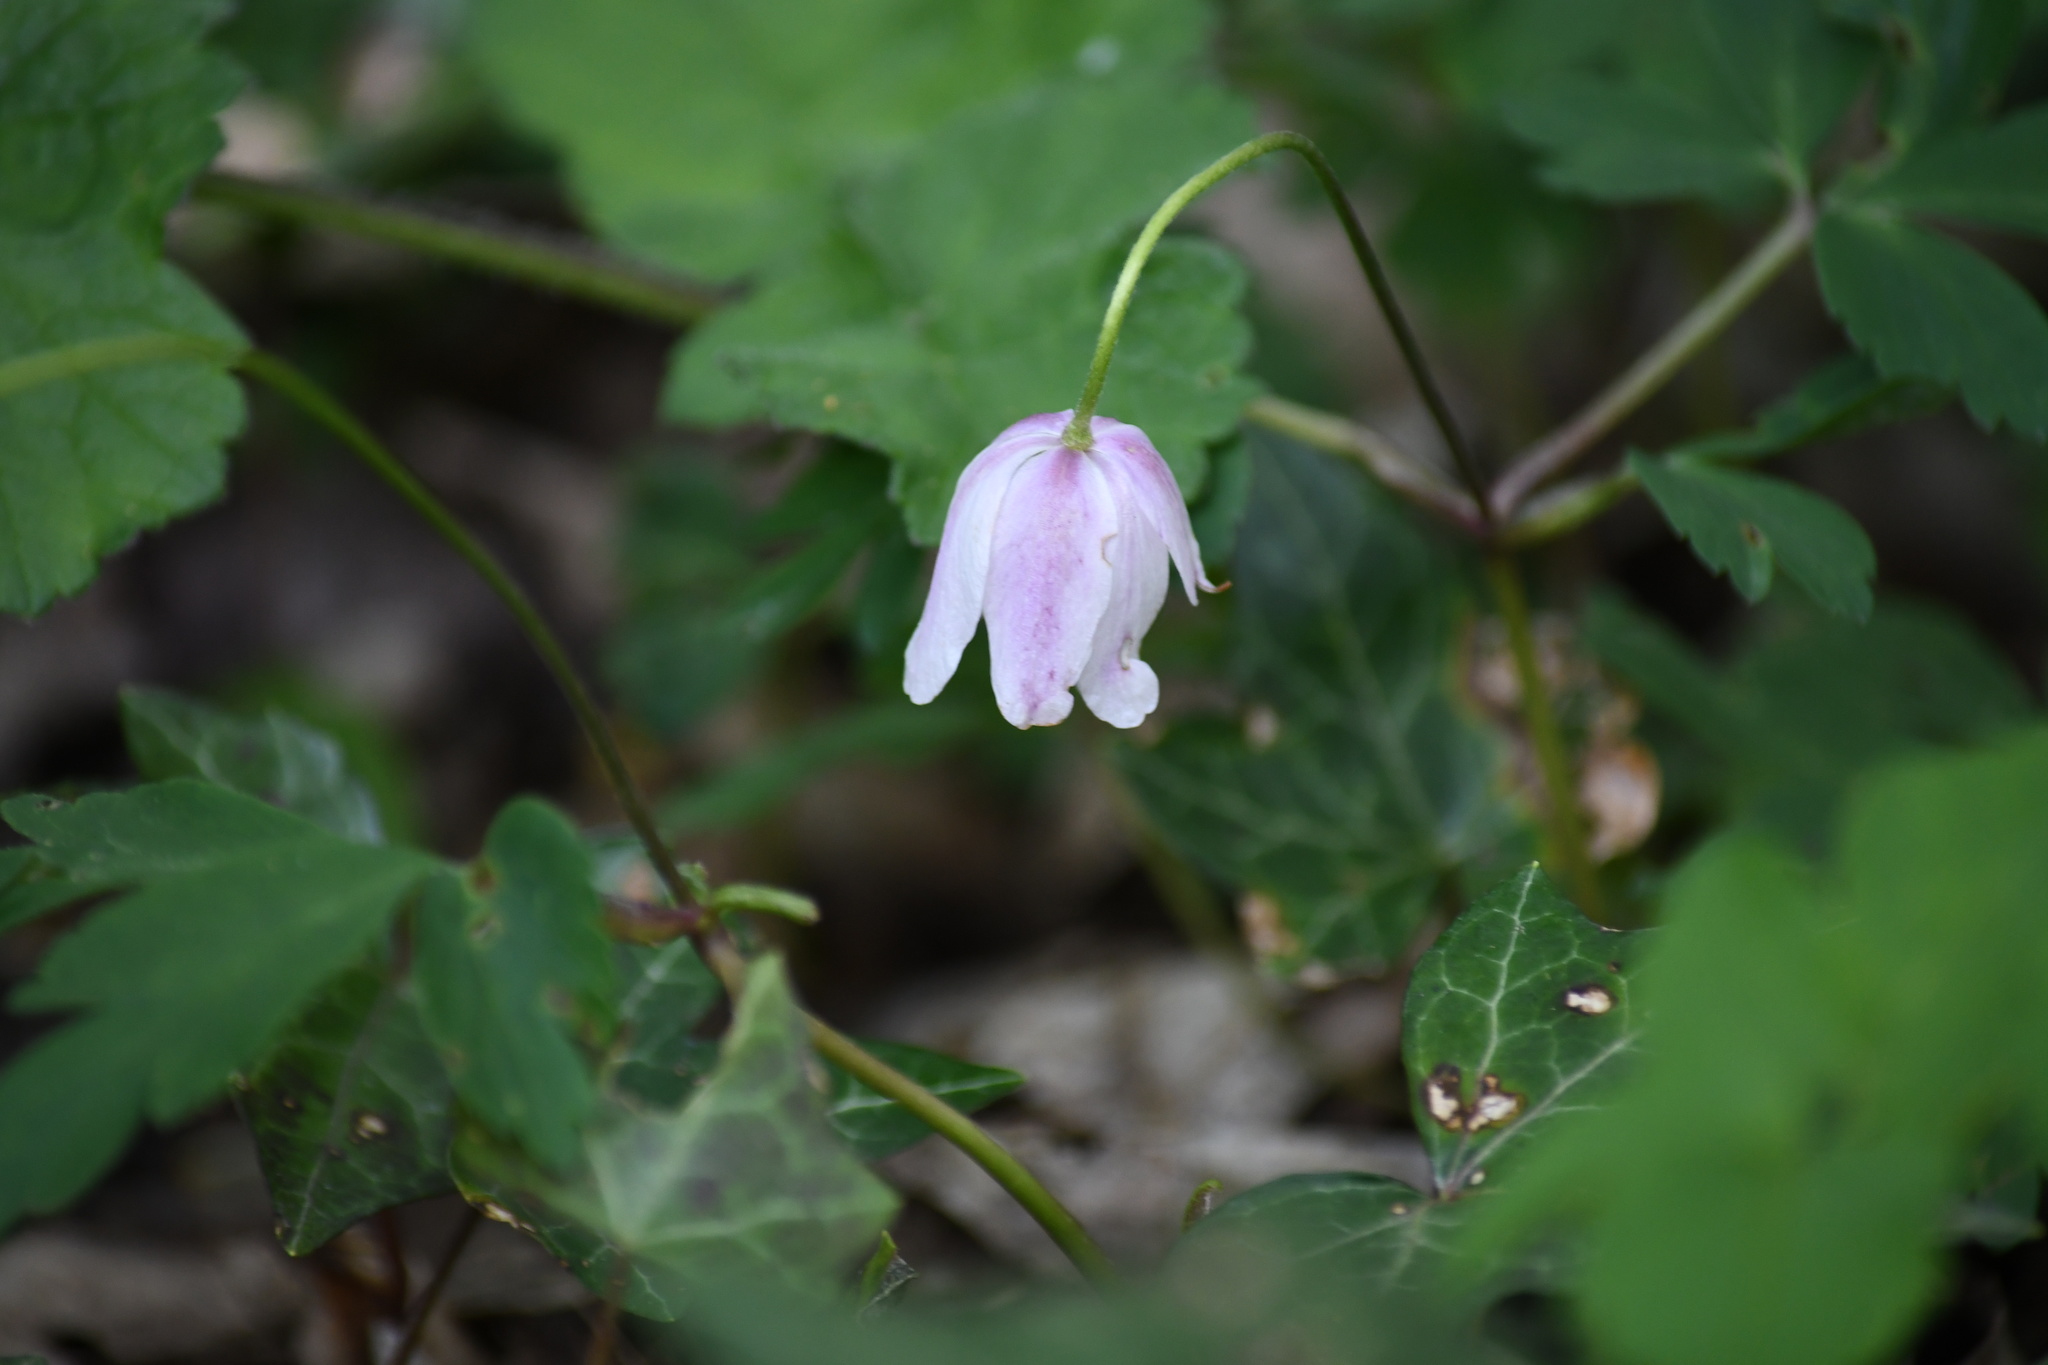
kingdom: Plantae
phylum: Tracheophyta
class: Magnoliopsida
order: Ranunculales
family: Ranunculaceae
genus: Anemone
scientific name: Anemone nemorosa
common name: Wood anemone
